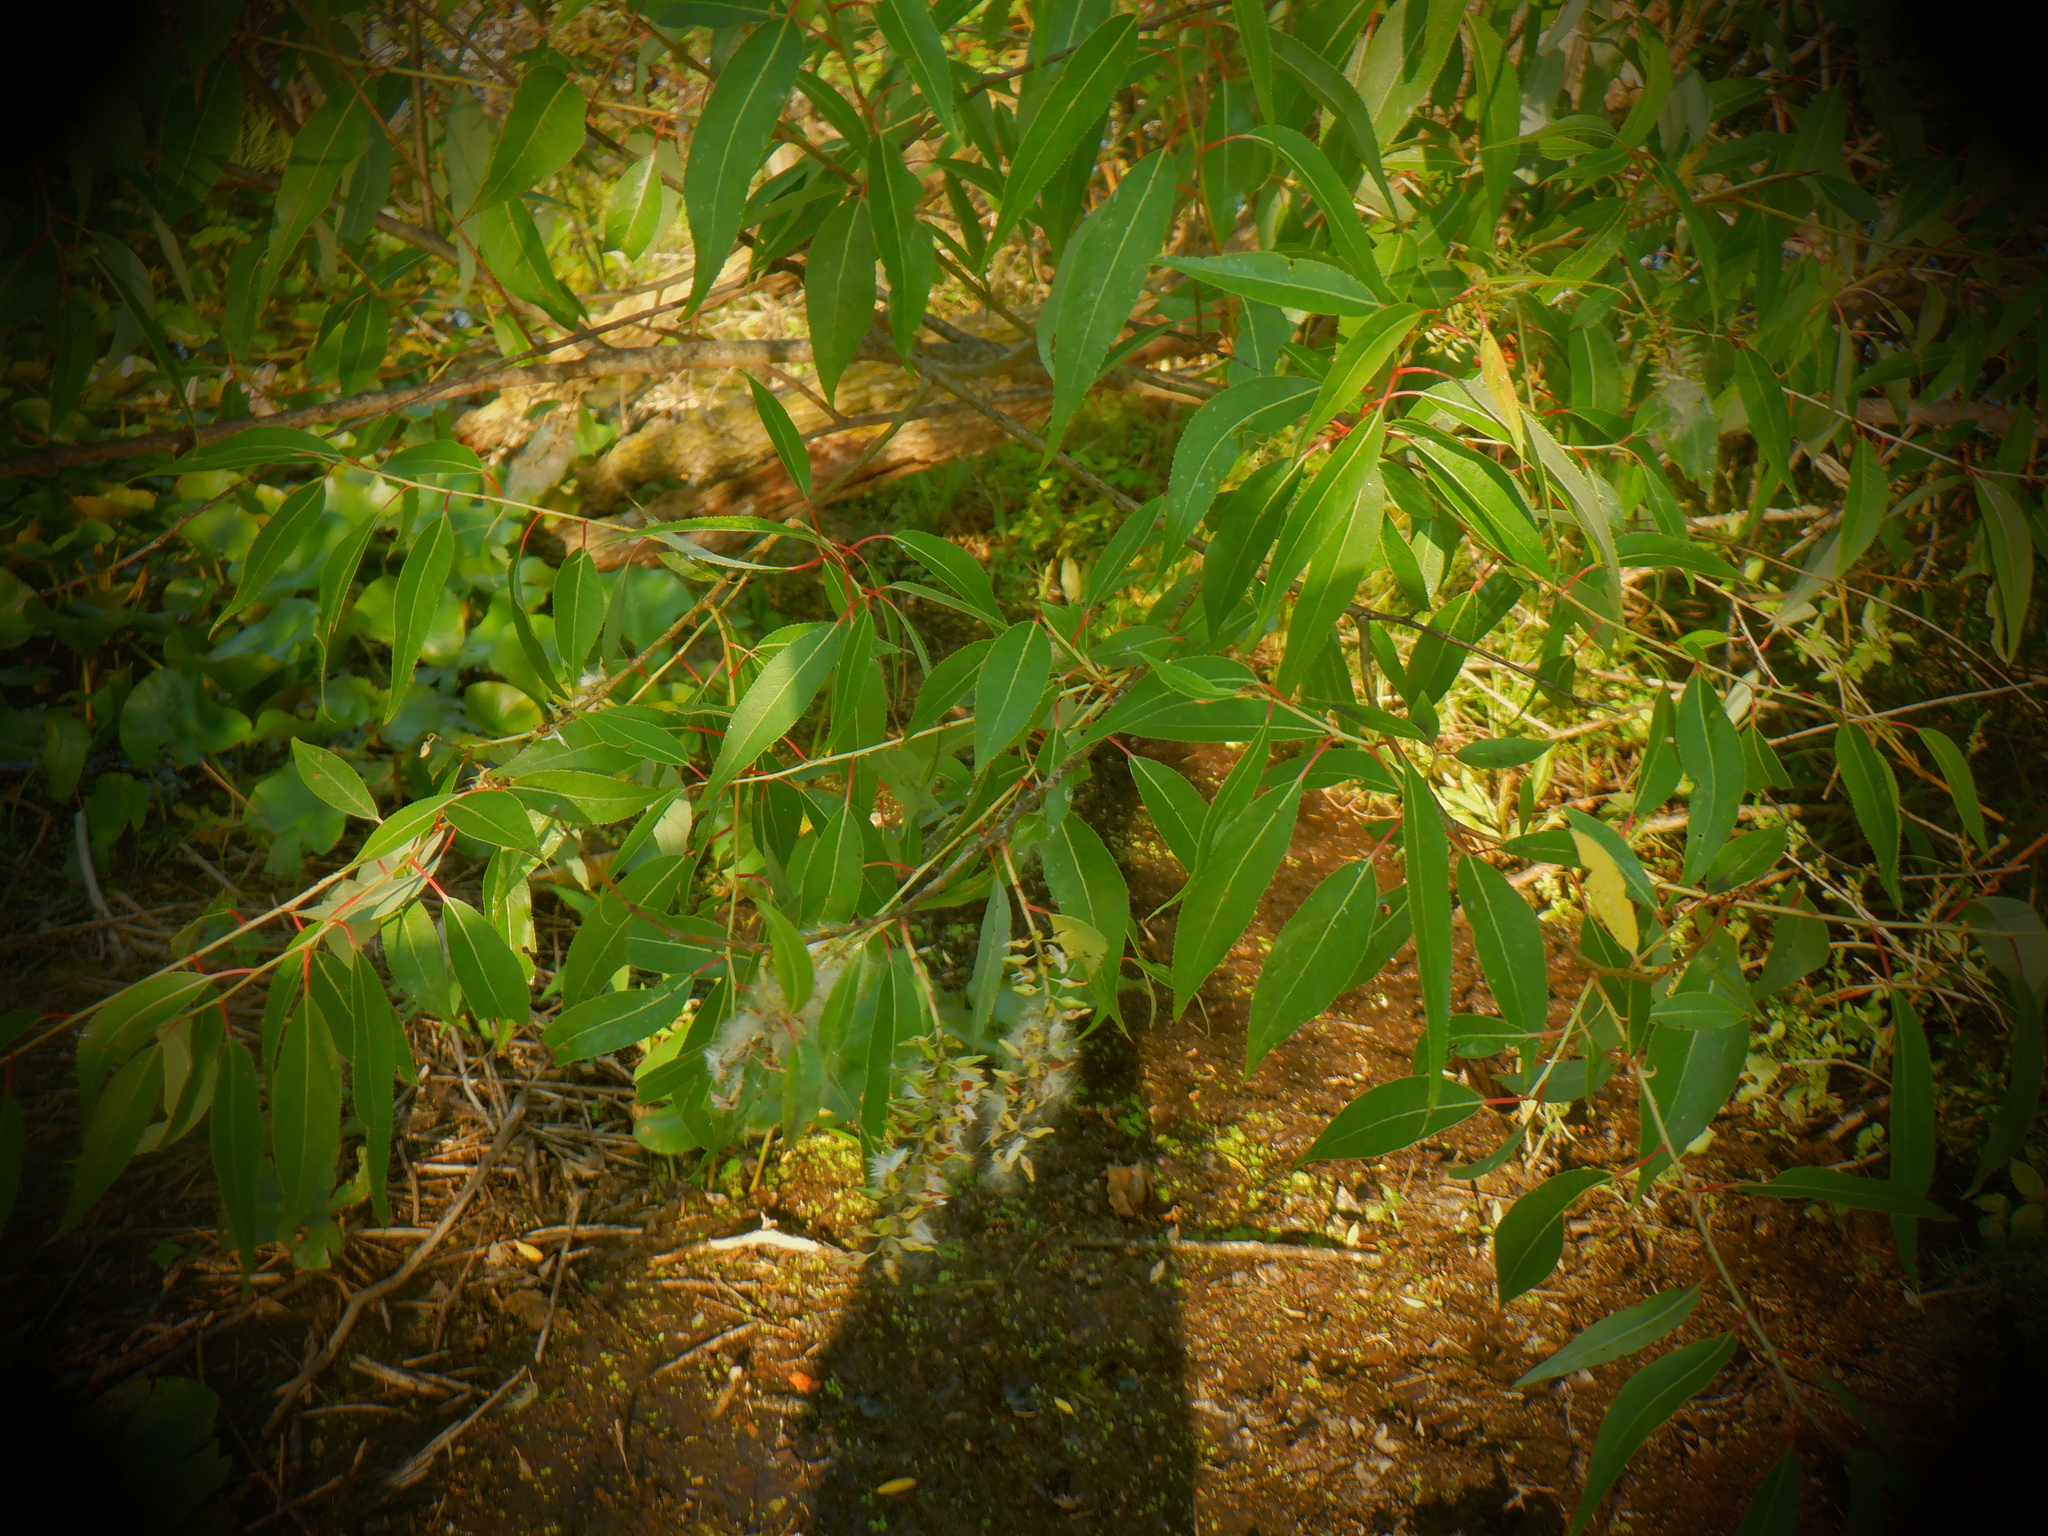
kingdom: Plantae
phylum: Tracheophyta
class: Magnoliopsida
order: Malpighiales
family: Salicaceae
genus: Salix
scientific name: Salix amygdaloides
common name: Peach leaf willow
